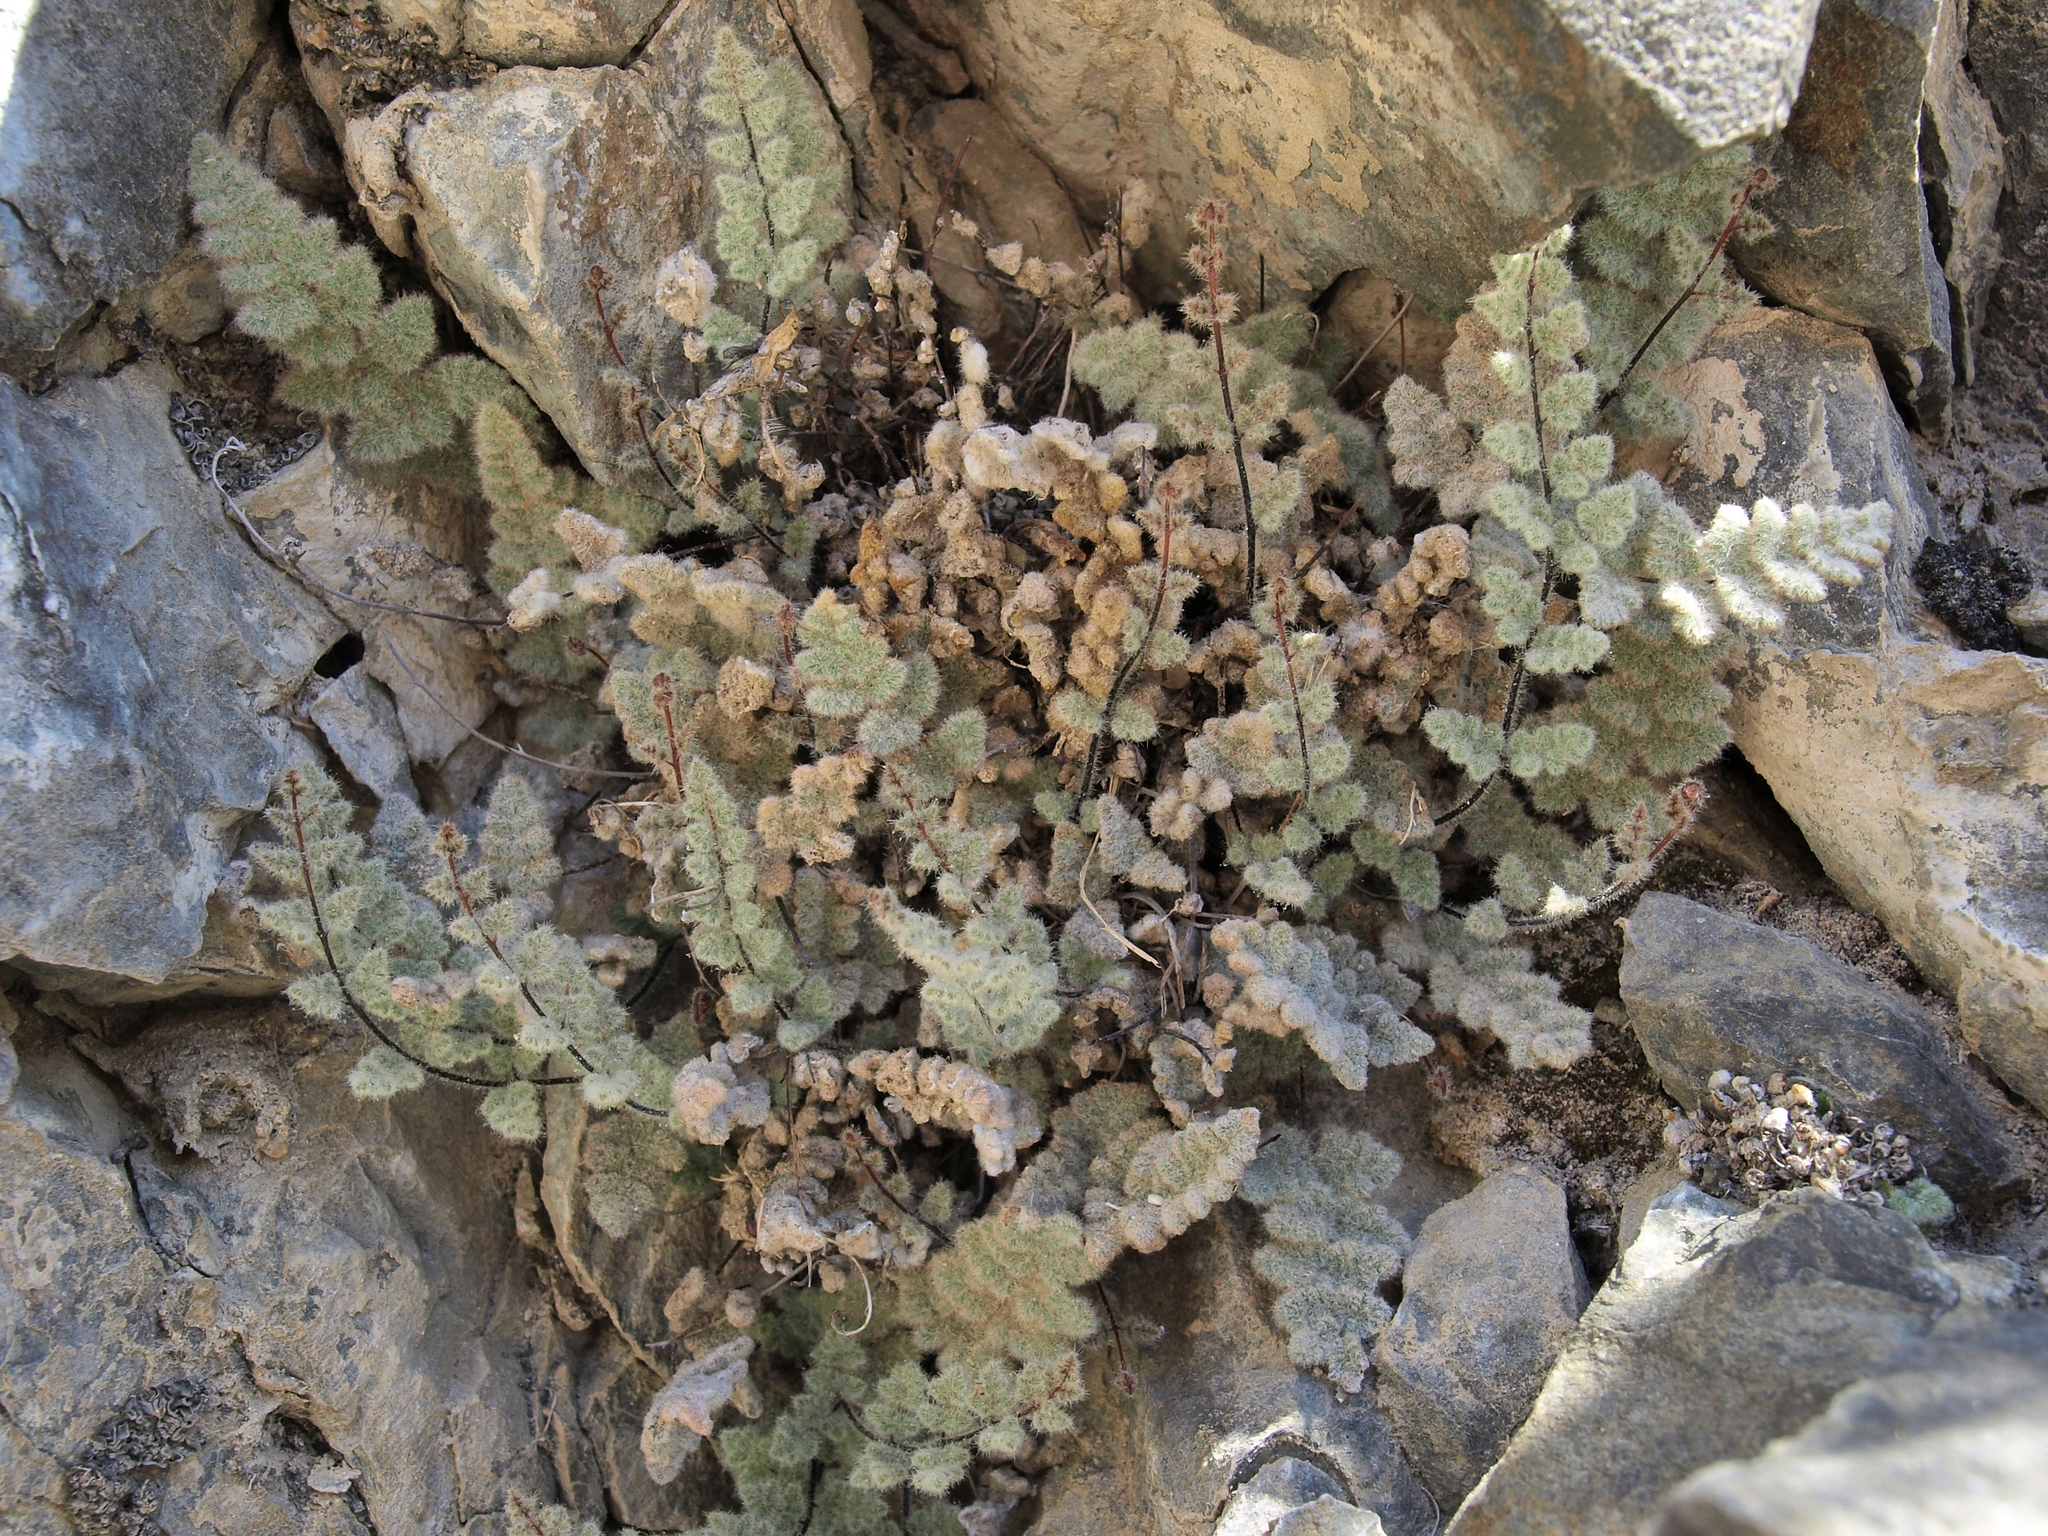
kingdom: Plantae
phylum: Tracheophyta
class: Polypodiopsida
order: Polypodiales
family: Pteridaceae
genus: Myriopteris
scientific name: Myriopteris parryi
